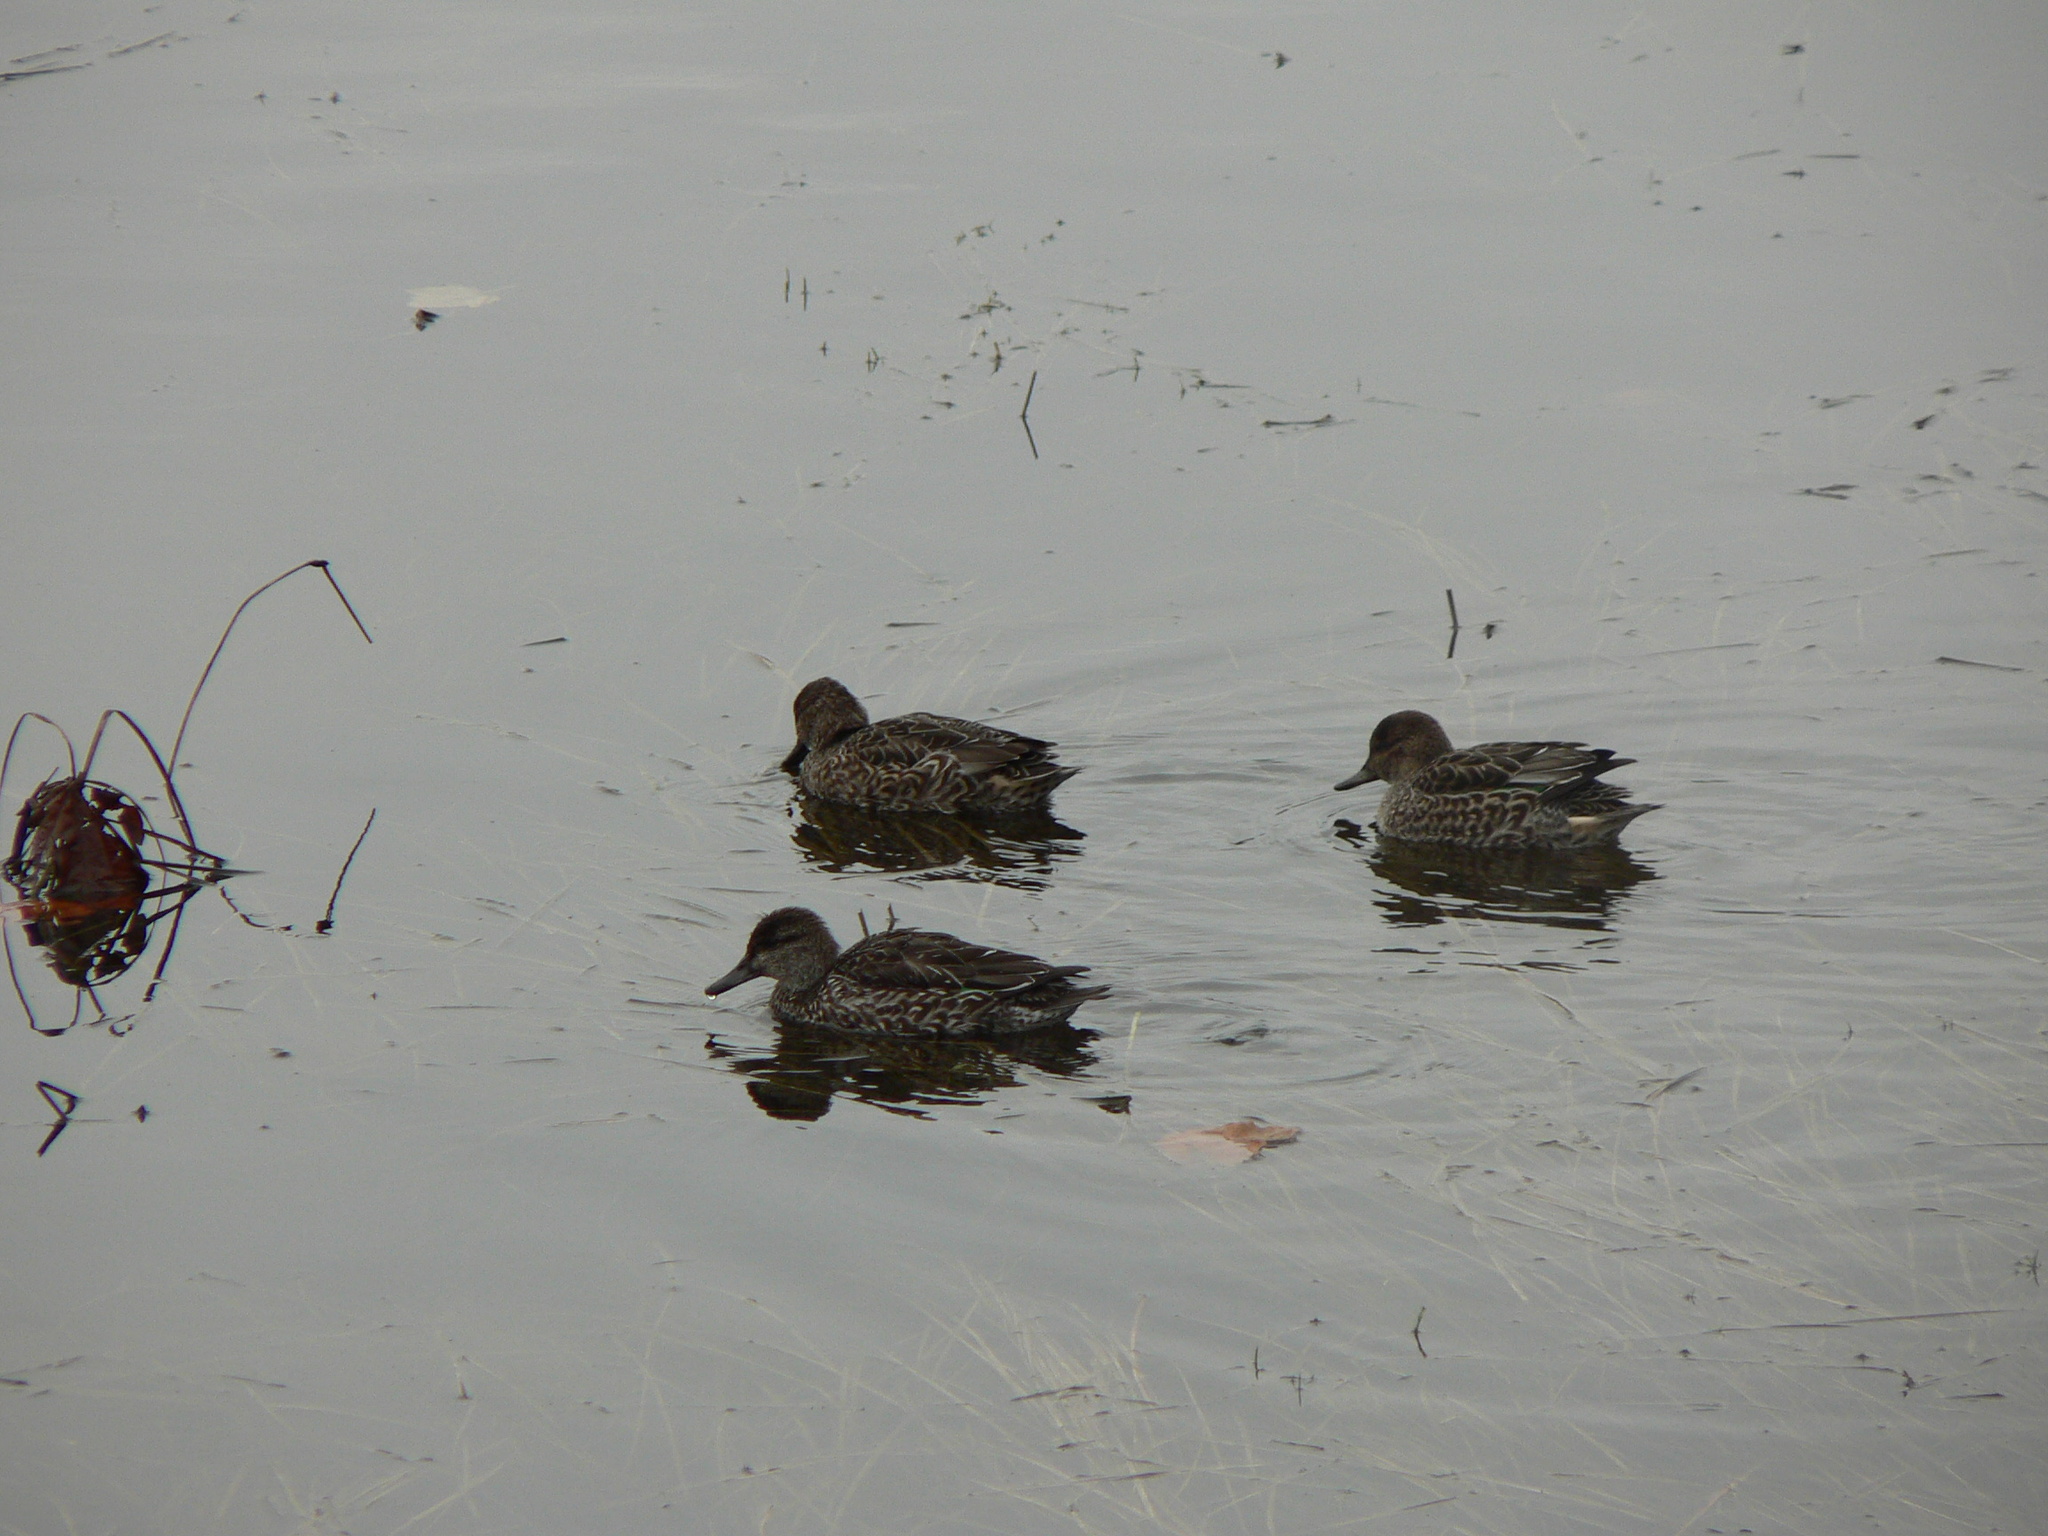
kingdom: Animalia
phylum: Chordata
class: Aves
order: Anseriformes
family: Anatidae
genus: Anas
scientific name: Anas crecca
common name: Eurasian teal
